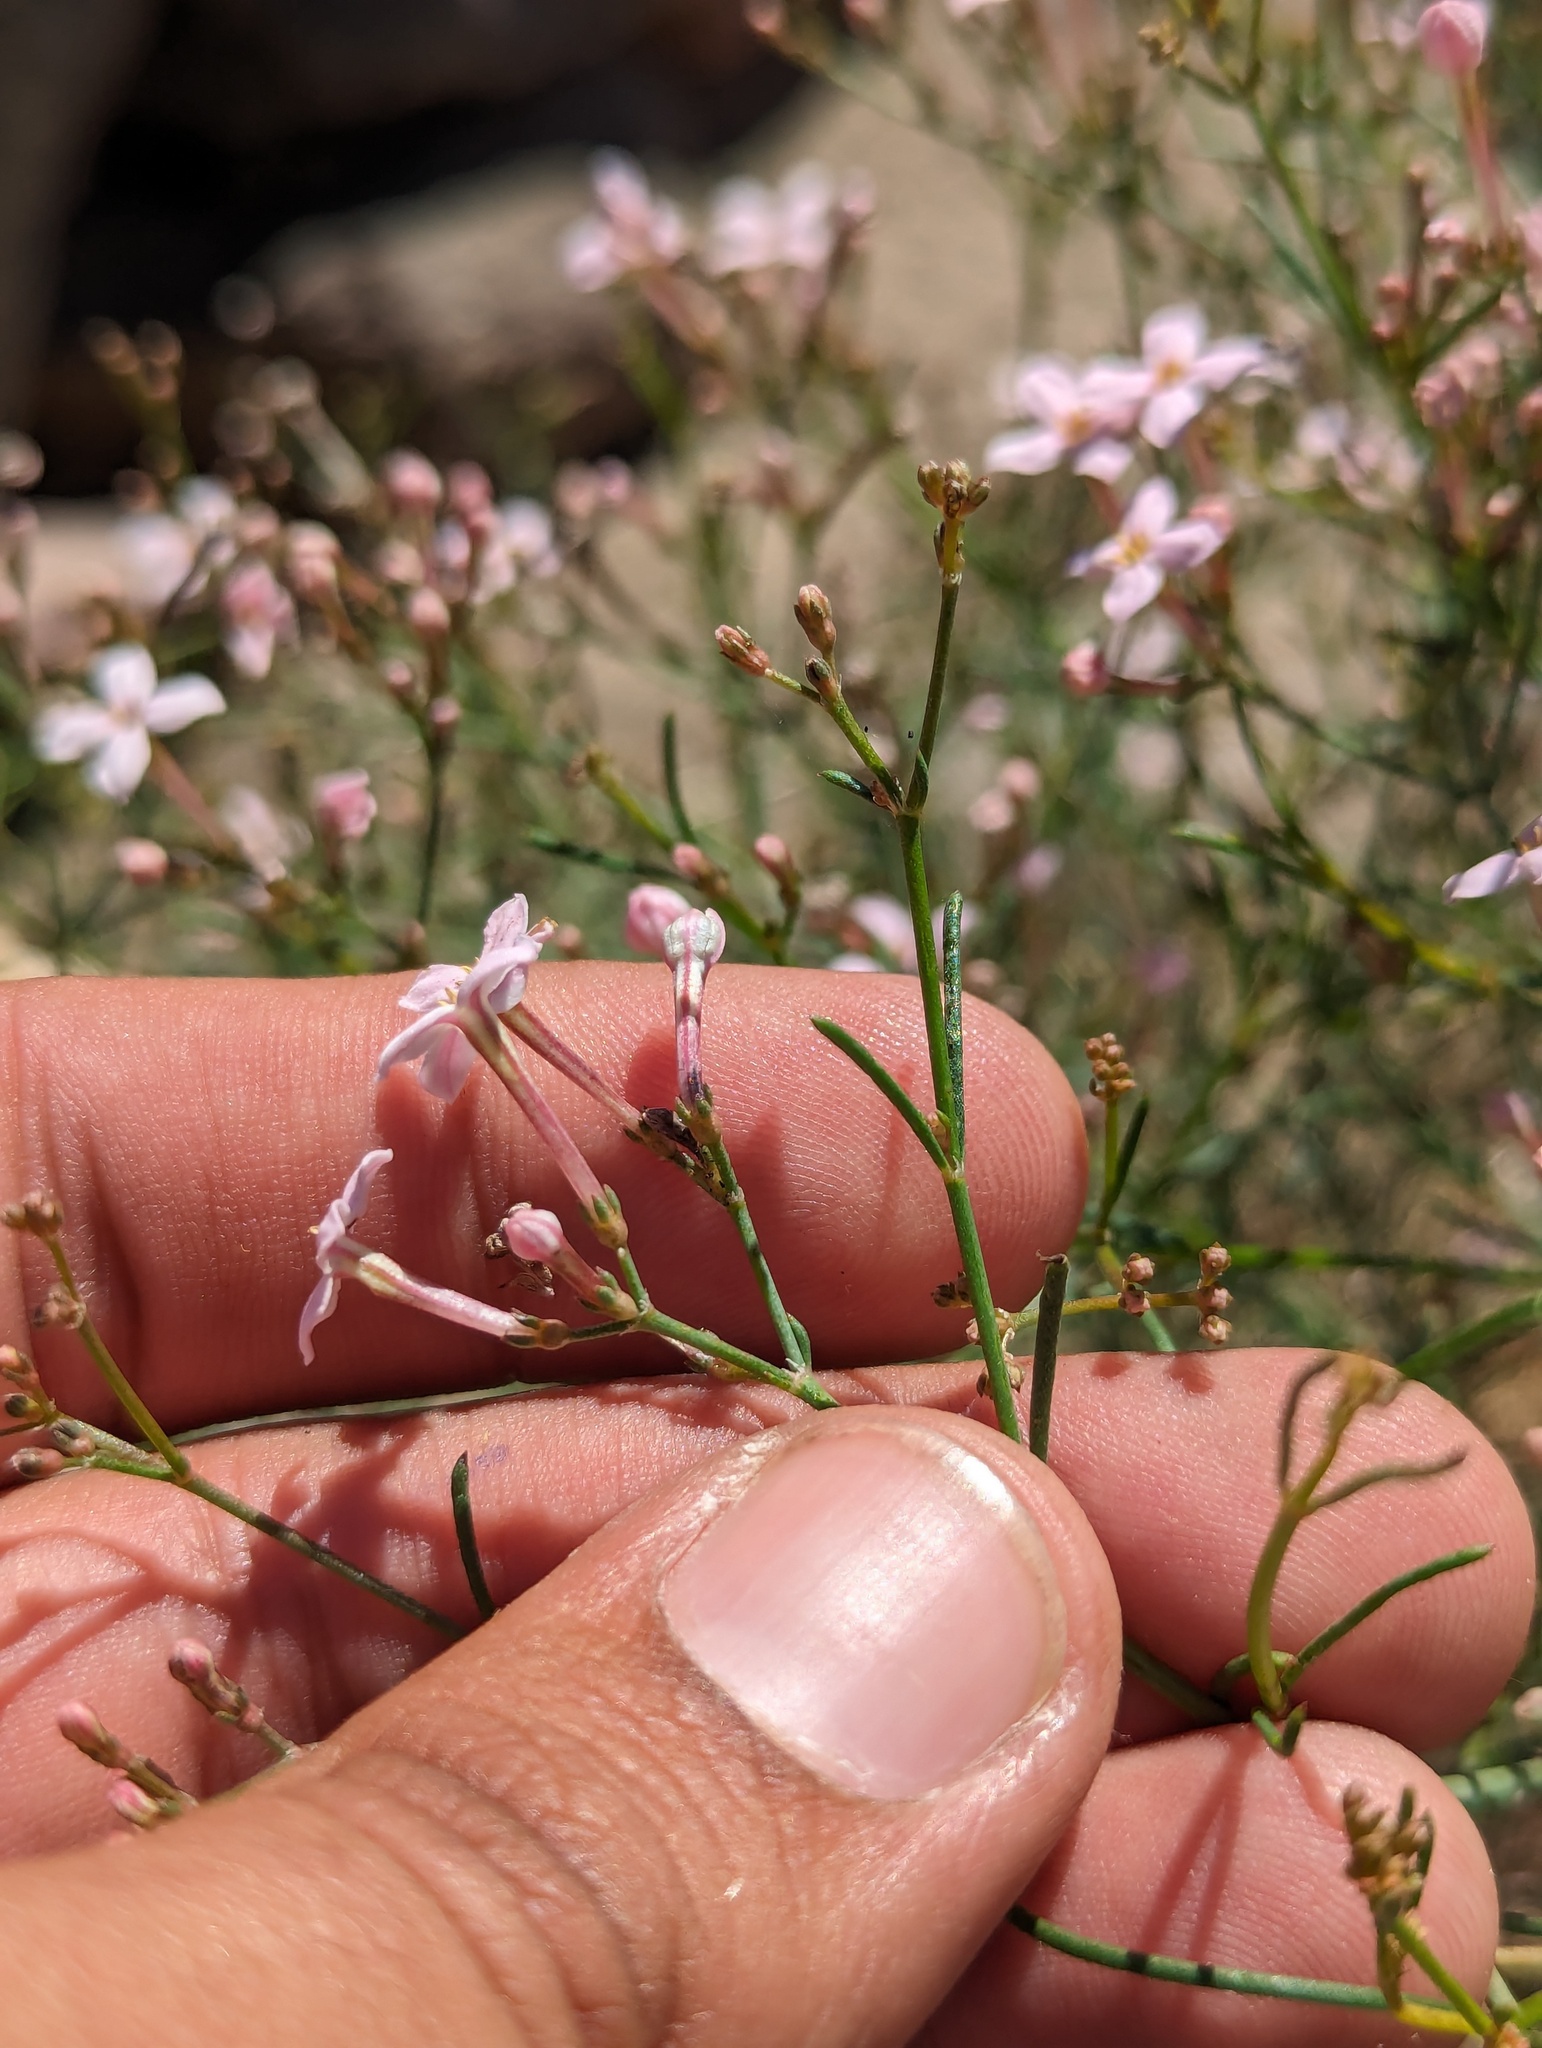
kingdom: Plantae
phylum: Tracheophyta
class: Magnoliopsida
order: Gentianales
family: Rubiaceae
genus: Stenotis
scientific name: Stenotis brevipes
